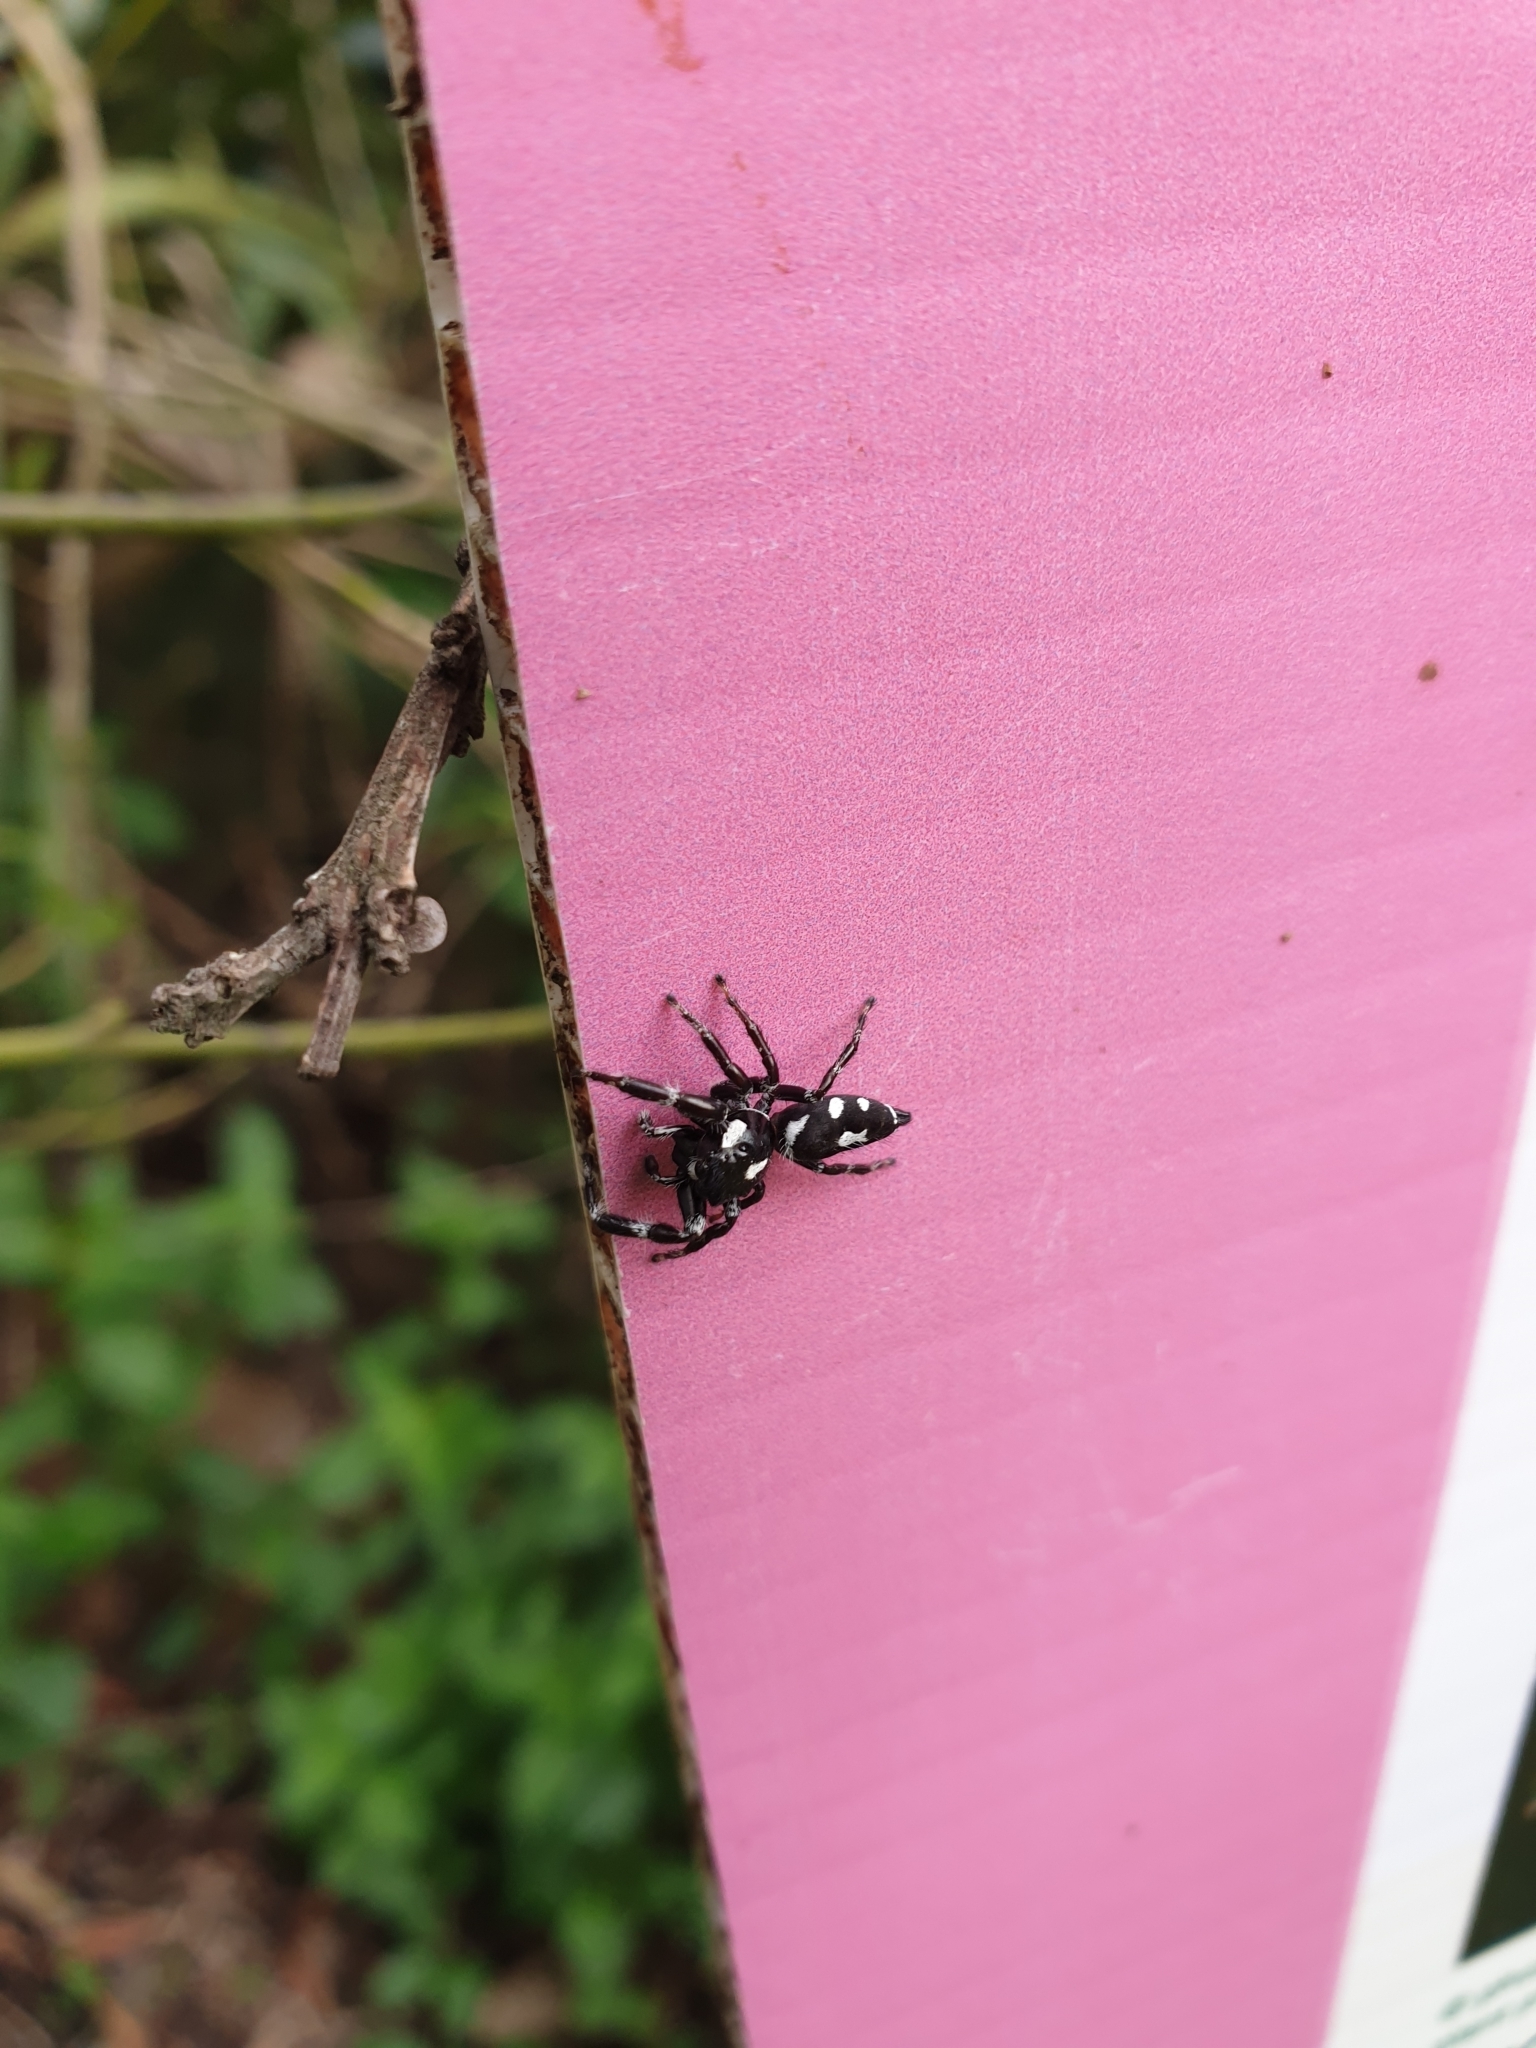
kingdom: Animalia
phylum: Arthropoda
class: Arachnida
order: Araneae
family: Salticidae
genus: Sandalodes
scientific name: Sandalodes scopifer
